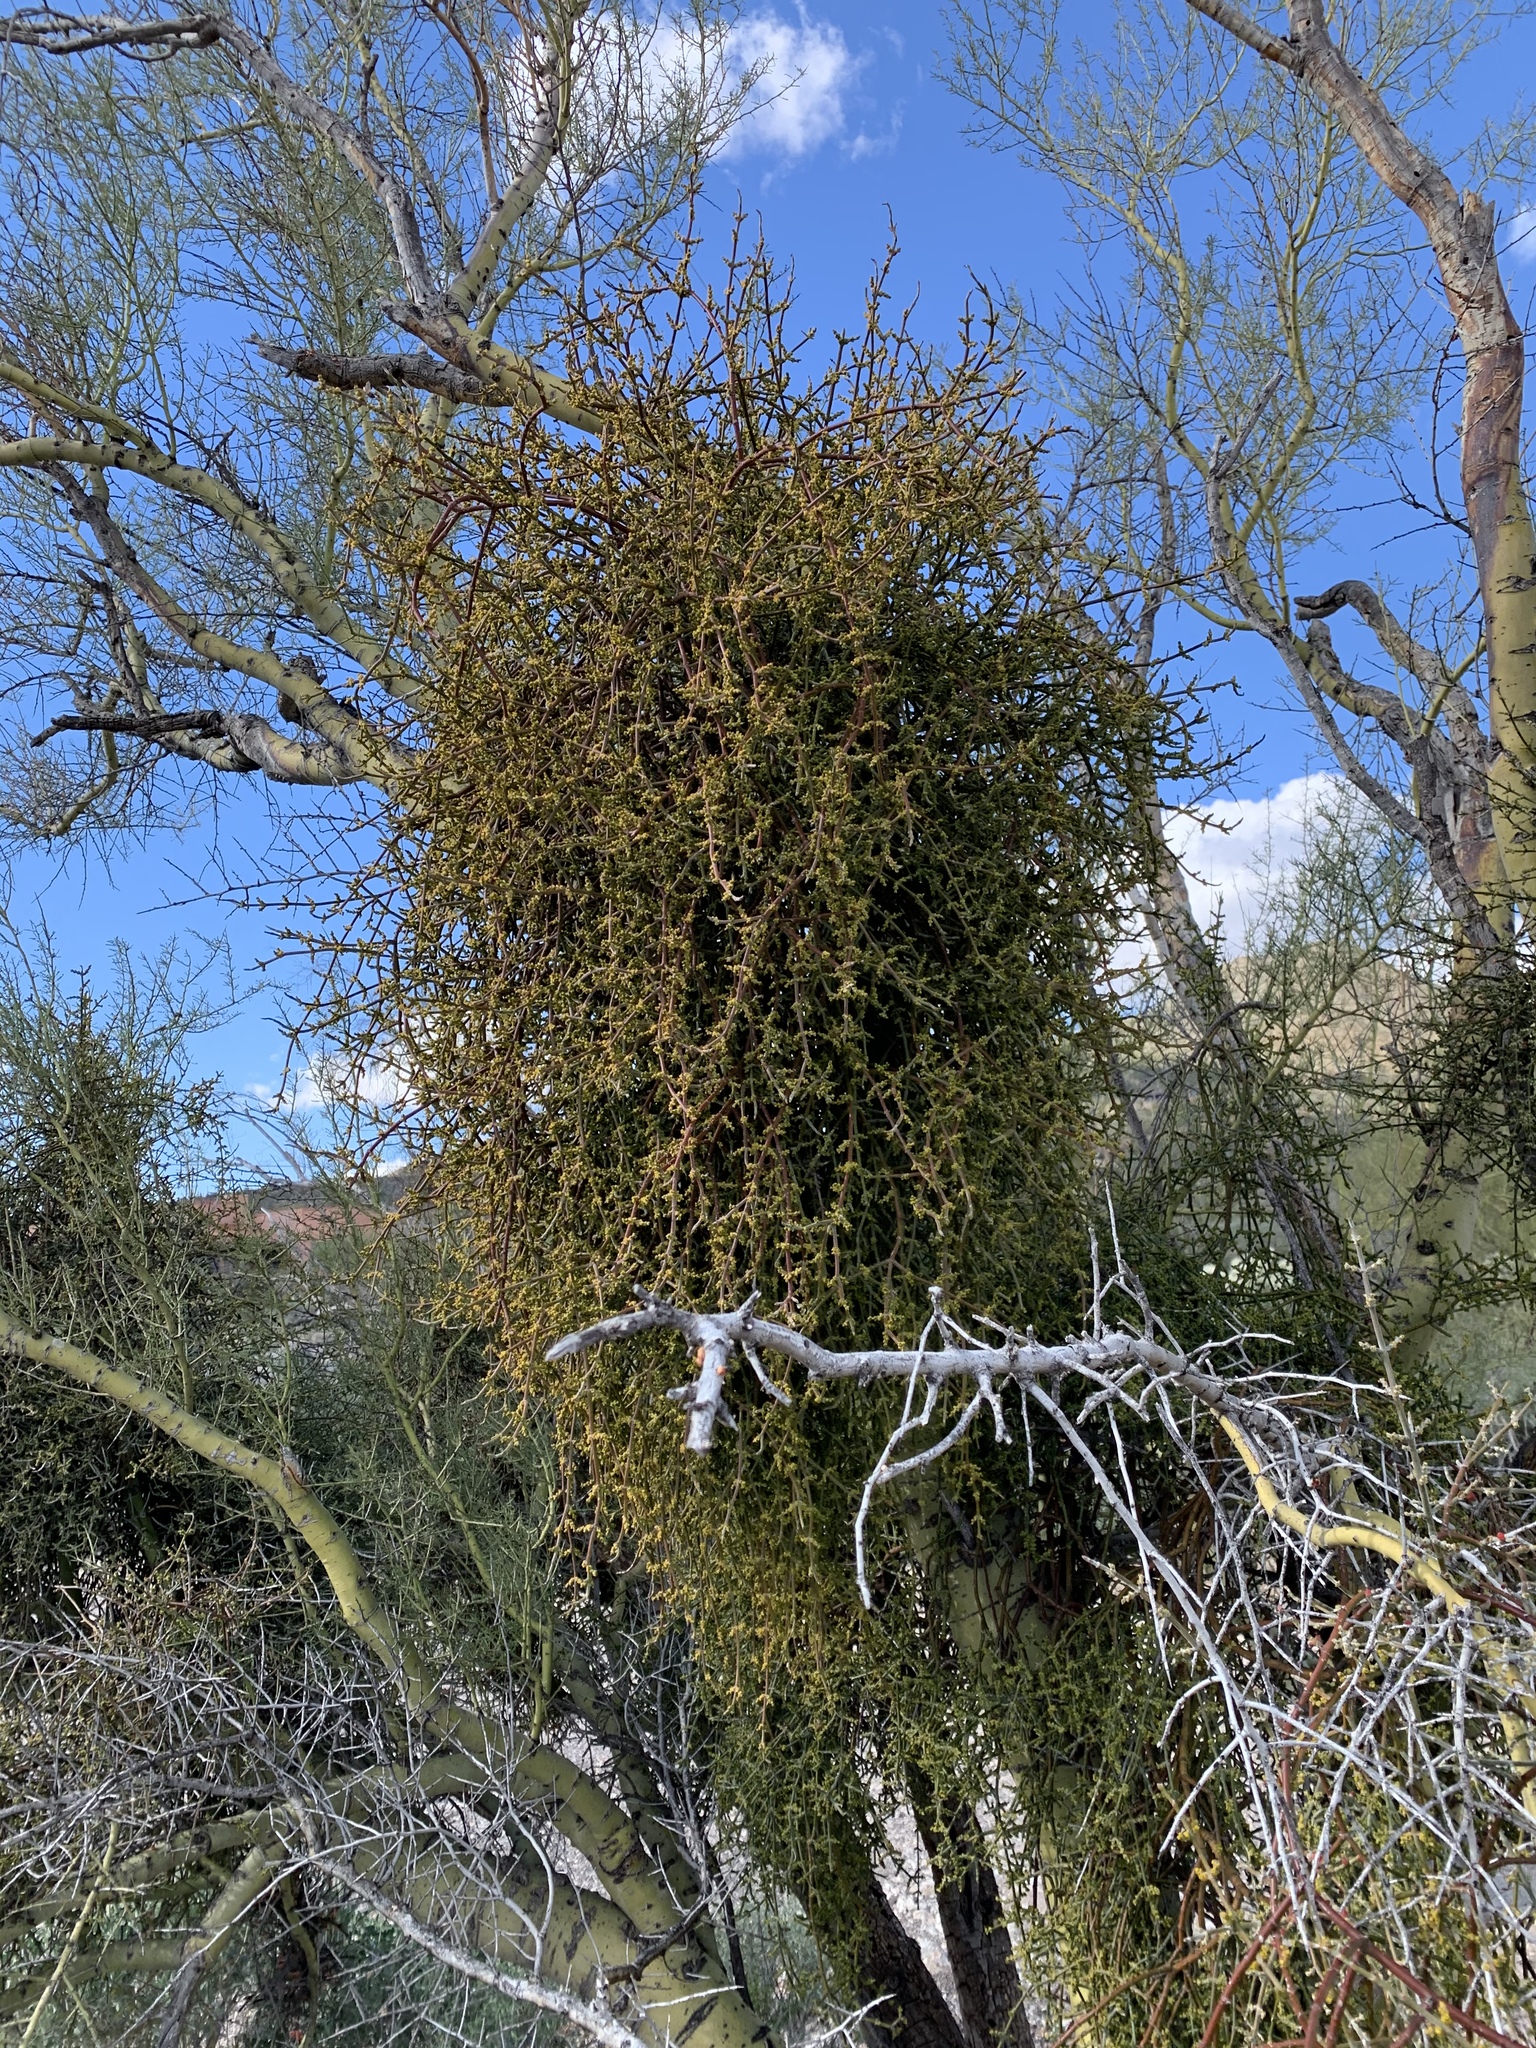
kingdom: Plantae
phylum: Tracheophyta
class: Magnoliopsida
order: Santalales
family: Viscaceae
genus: Phoradendron
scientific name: Phoradendron californicum
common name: Acacia mistletoe
